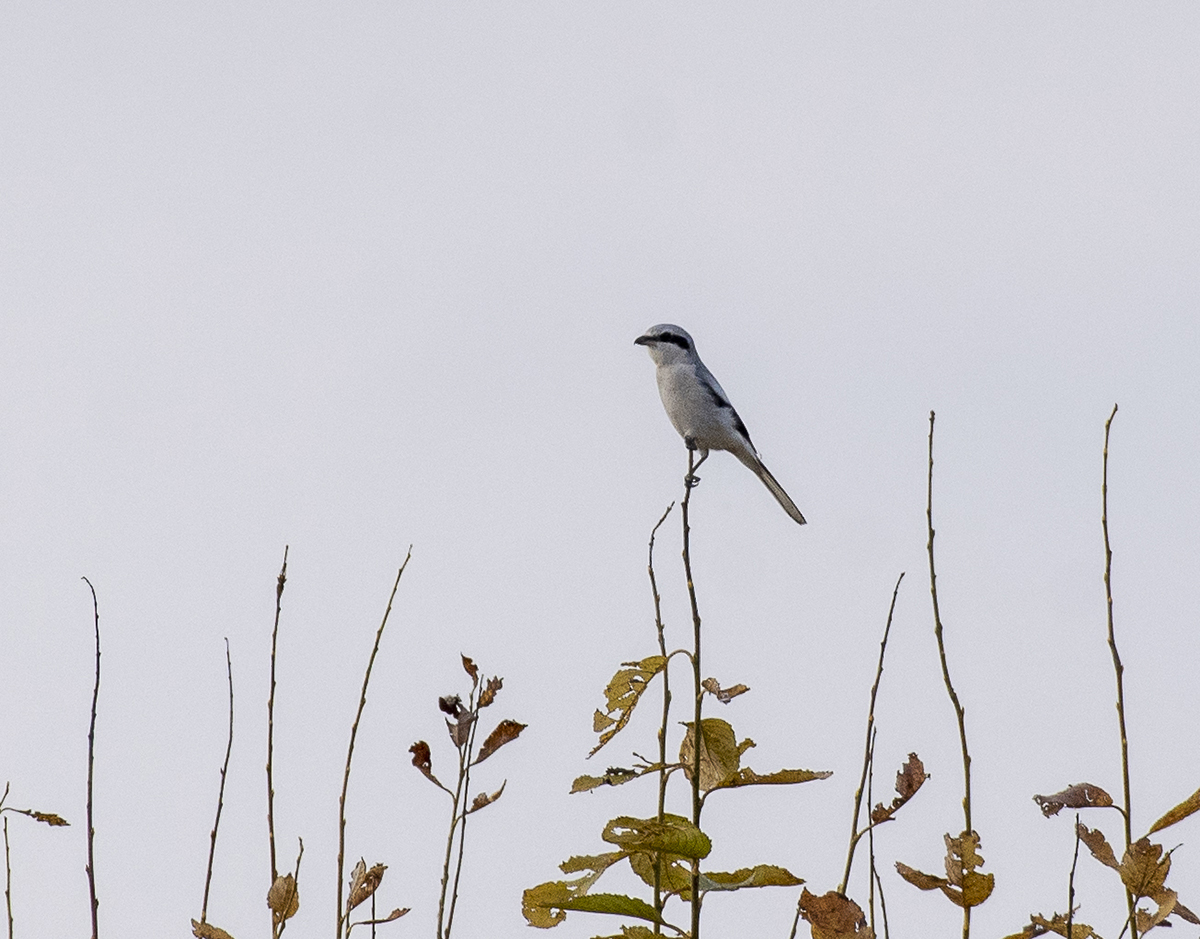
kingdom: Animalia
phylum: Chordata
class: Aves
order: Passeriformes
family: Laniidae
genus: Lanius
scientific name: Lanius excubitor
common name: Great grey shrike
